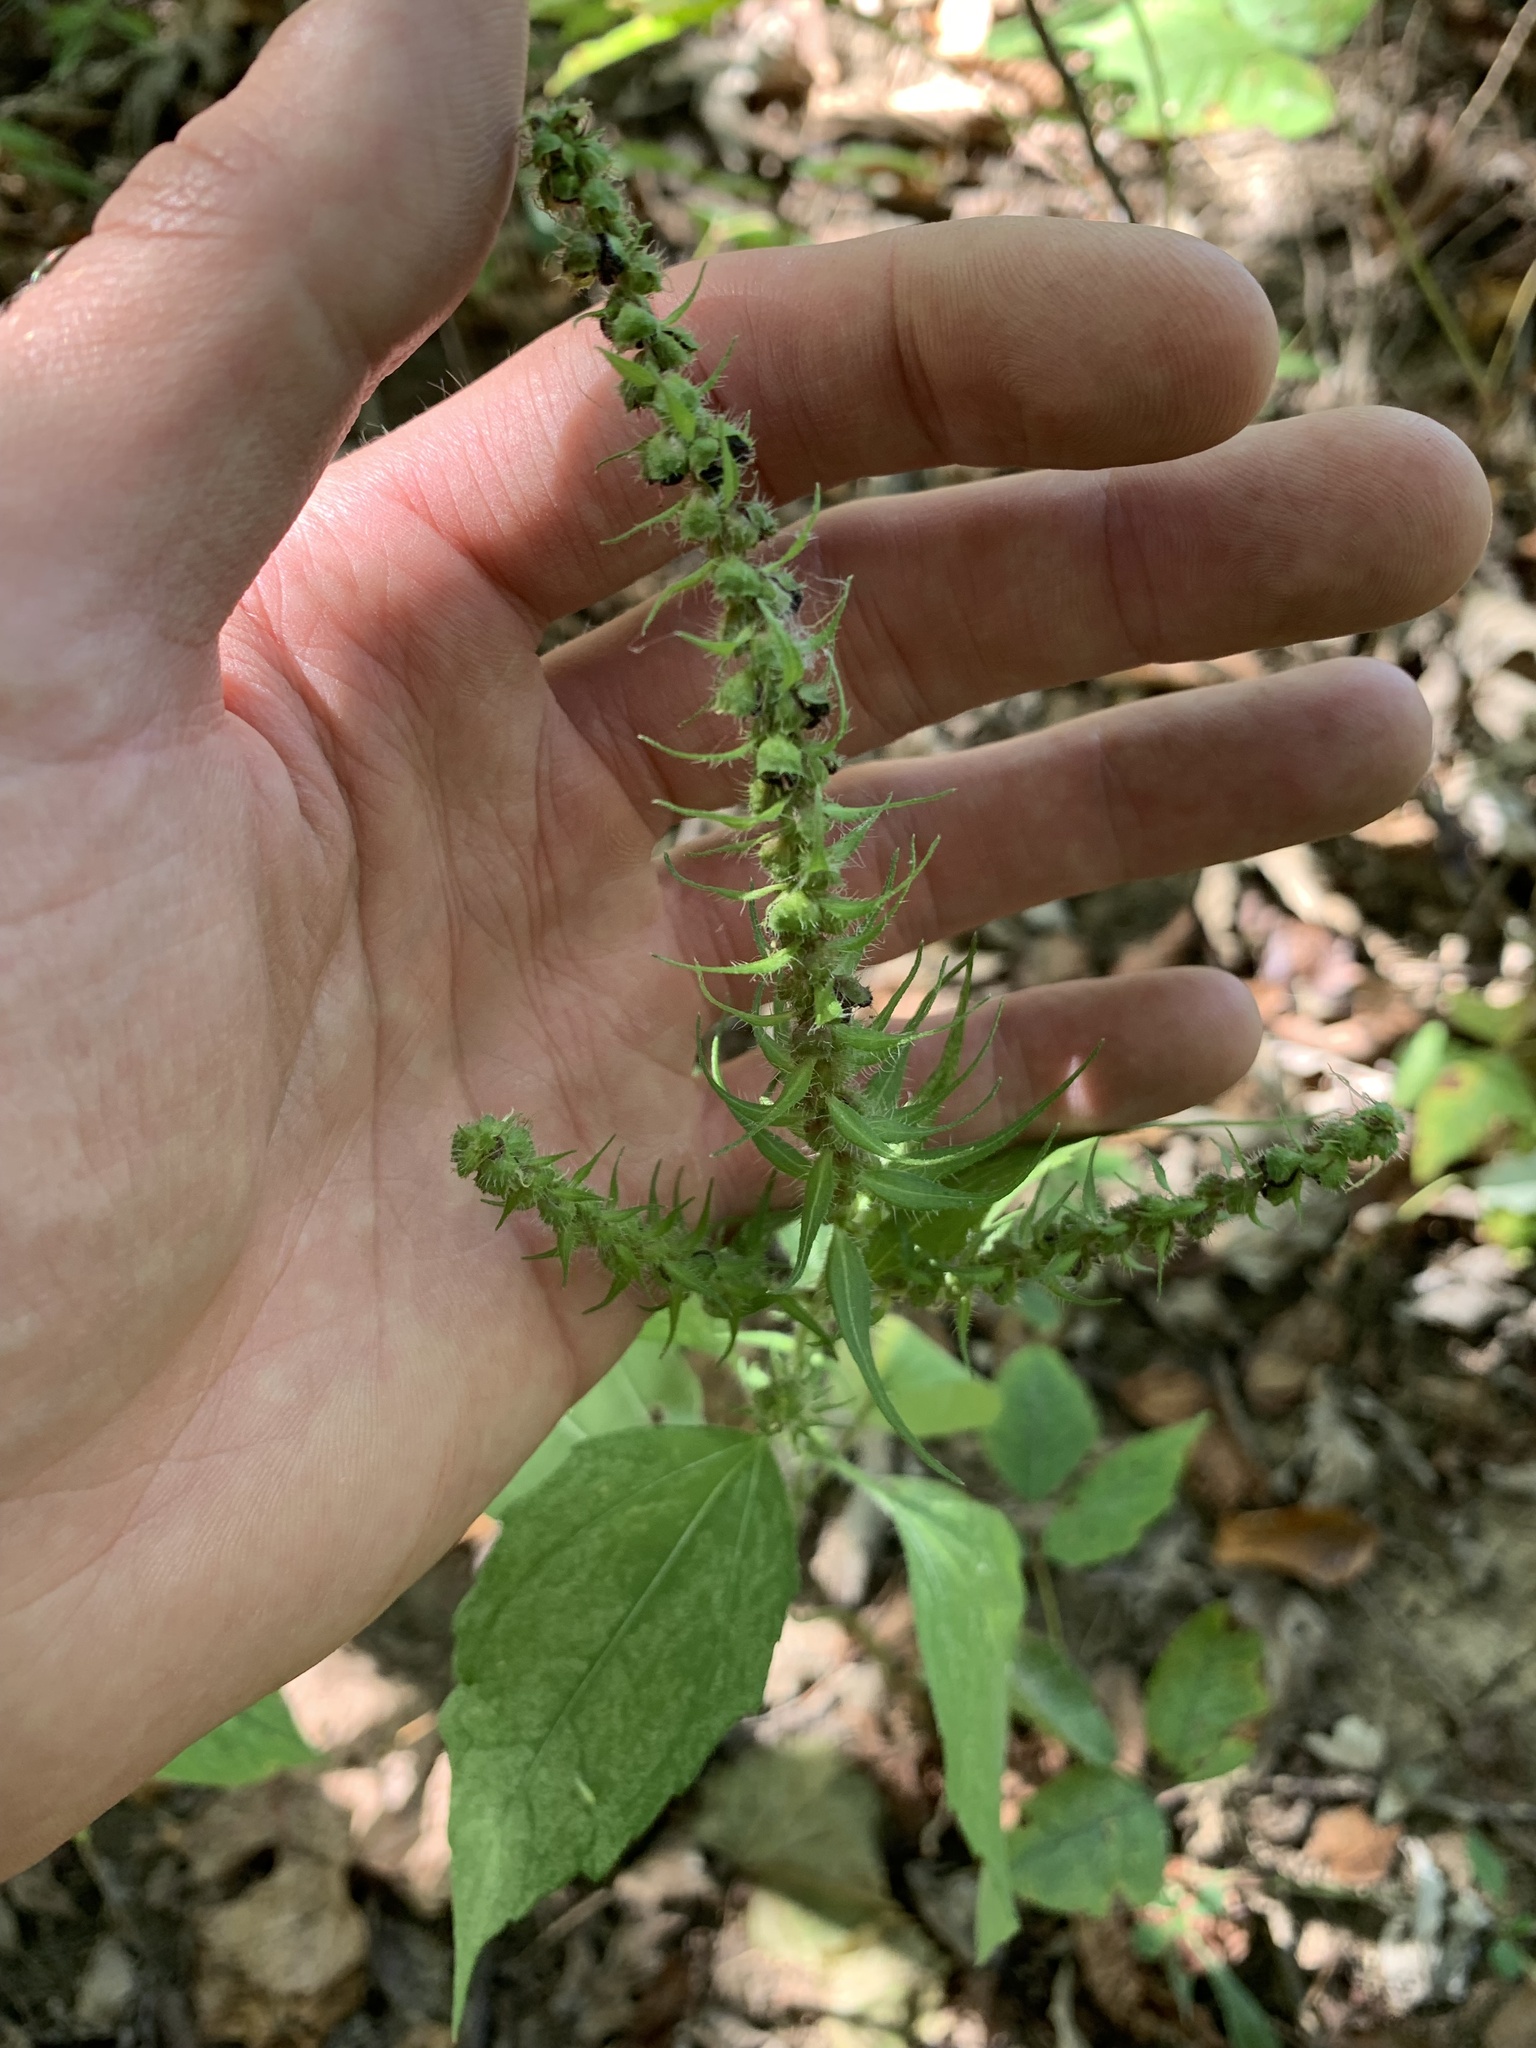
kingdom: Plantae
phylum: Tracheophyta
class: Magnoliopsida
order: Asterales
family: Asteraceae
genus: Iva
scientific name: Iva annua
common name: Marsh-elder
